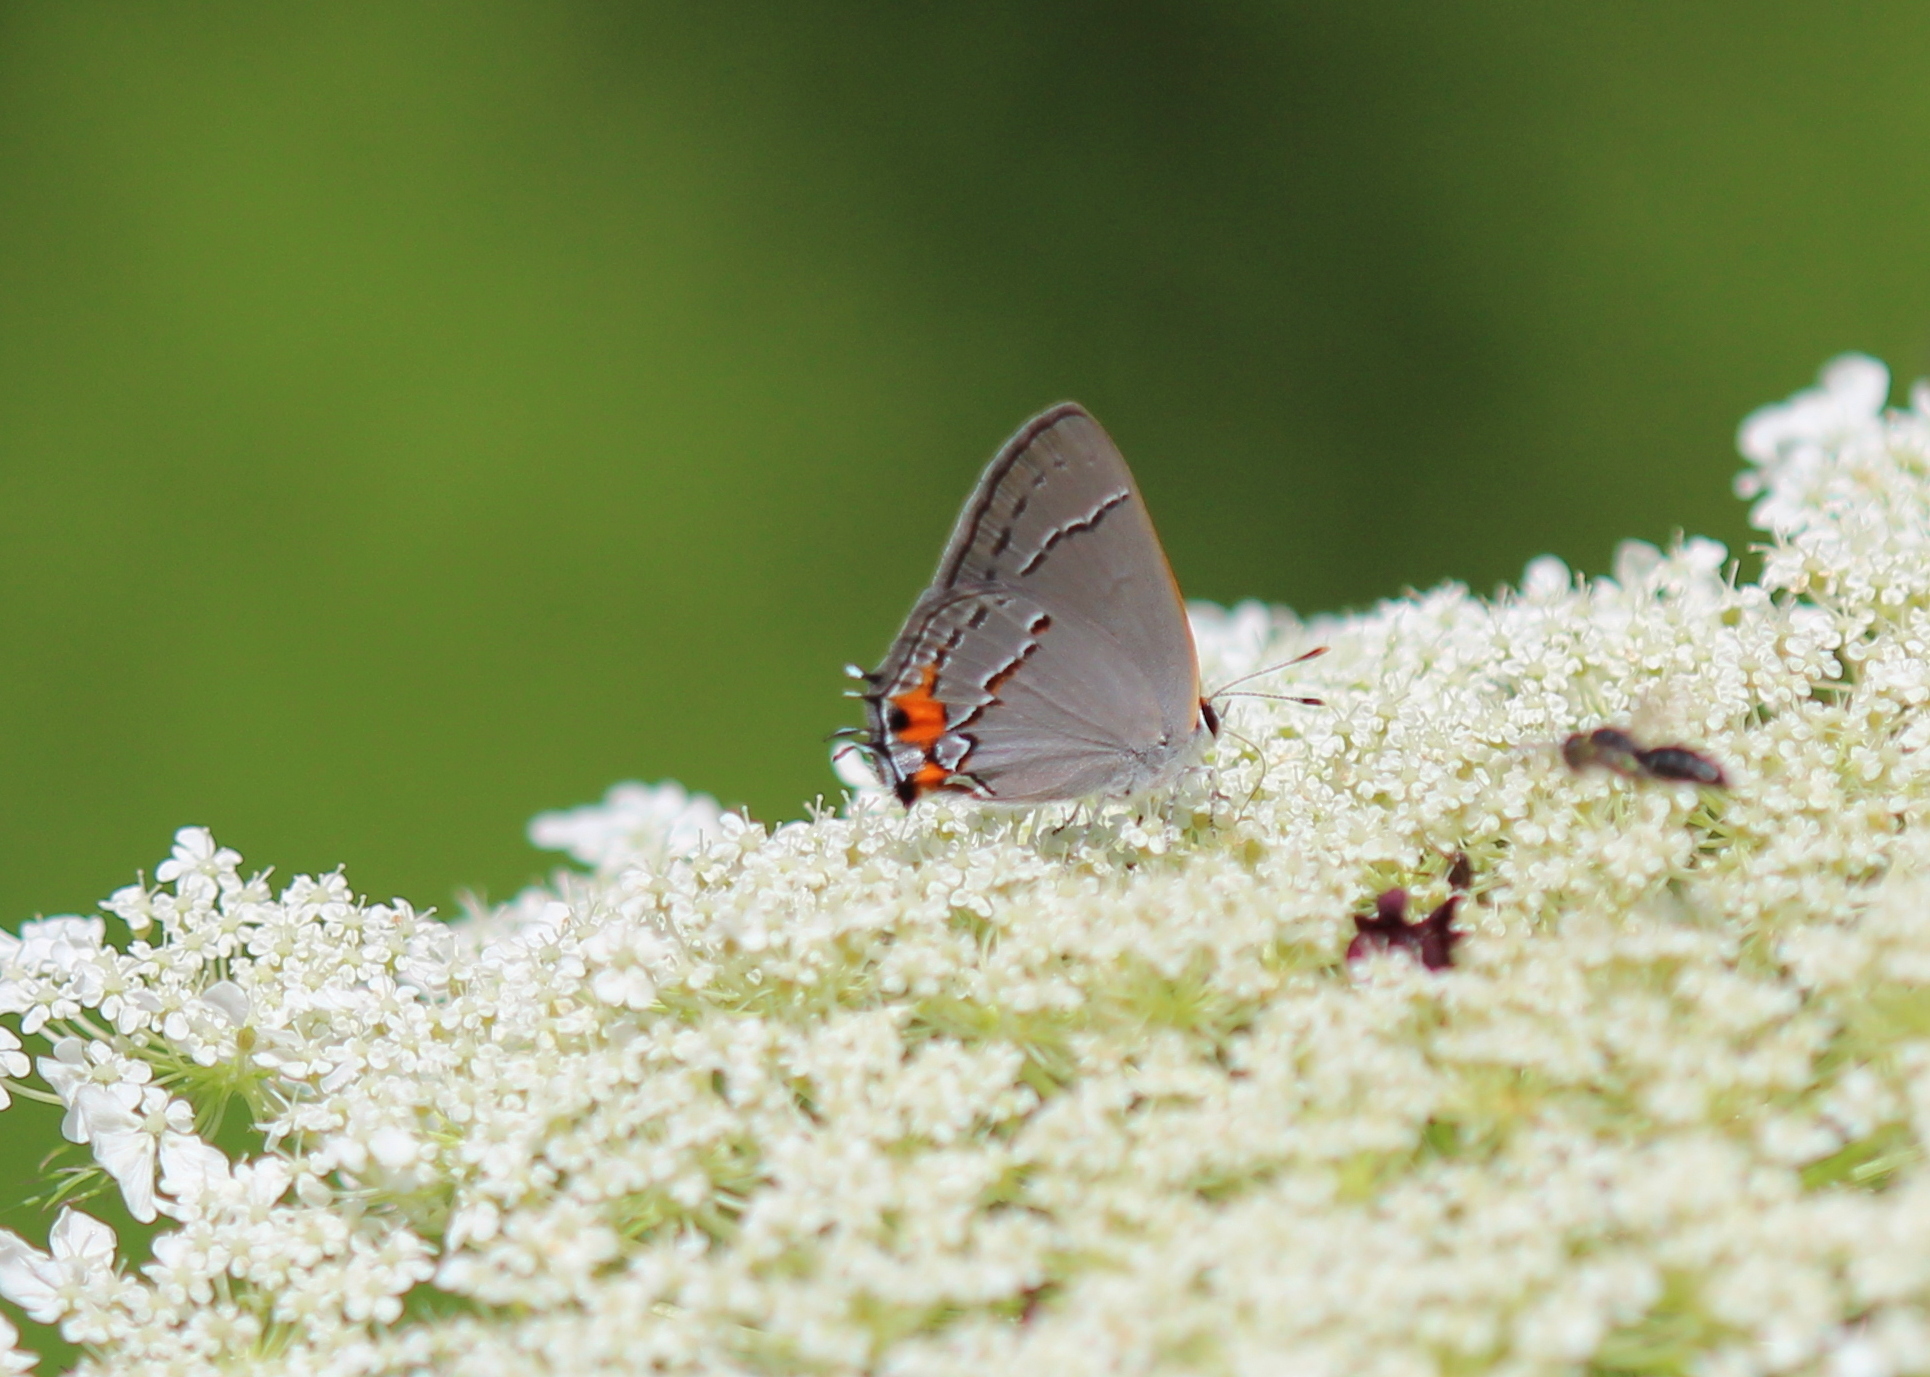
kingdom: Animalia
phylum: Arthropoda
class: Insecta
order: Lepidoptera
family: Lycaenidae
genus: Strymon
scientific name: Strymon melinus
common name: Gray hairstreak
